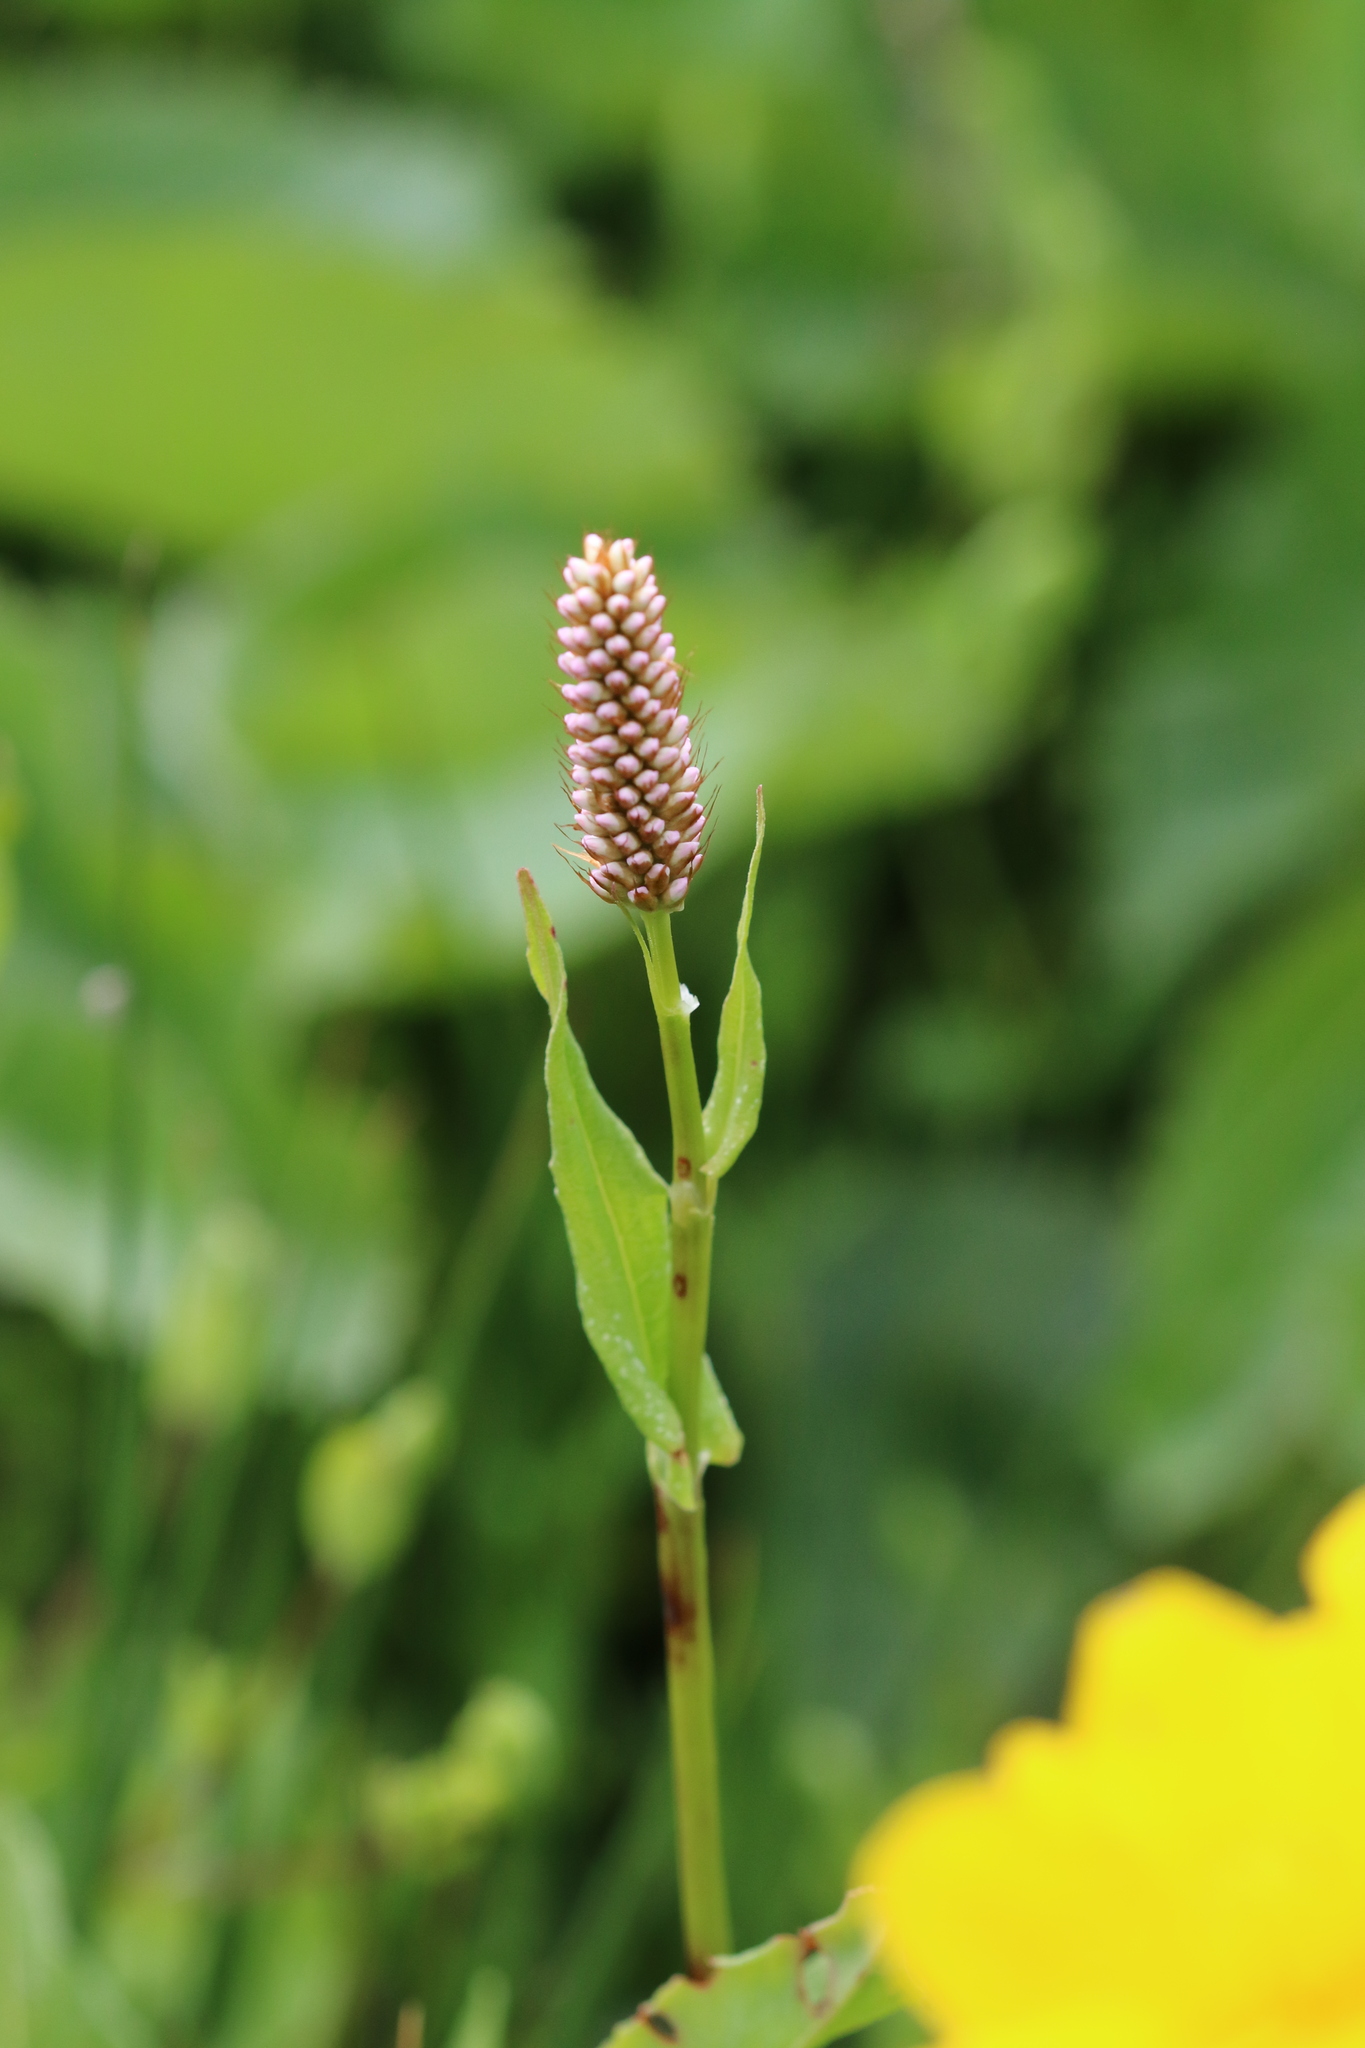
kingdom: Plantae
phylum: Tracheophyta
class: Magnoliopsida
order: Caryophyllales
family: Polygonaceae
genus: Bistorta
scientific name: Bistorta officinalis
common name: Common bistort
